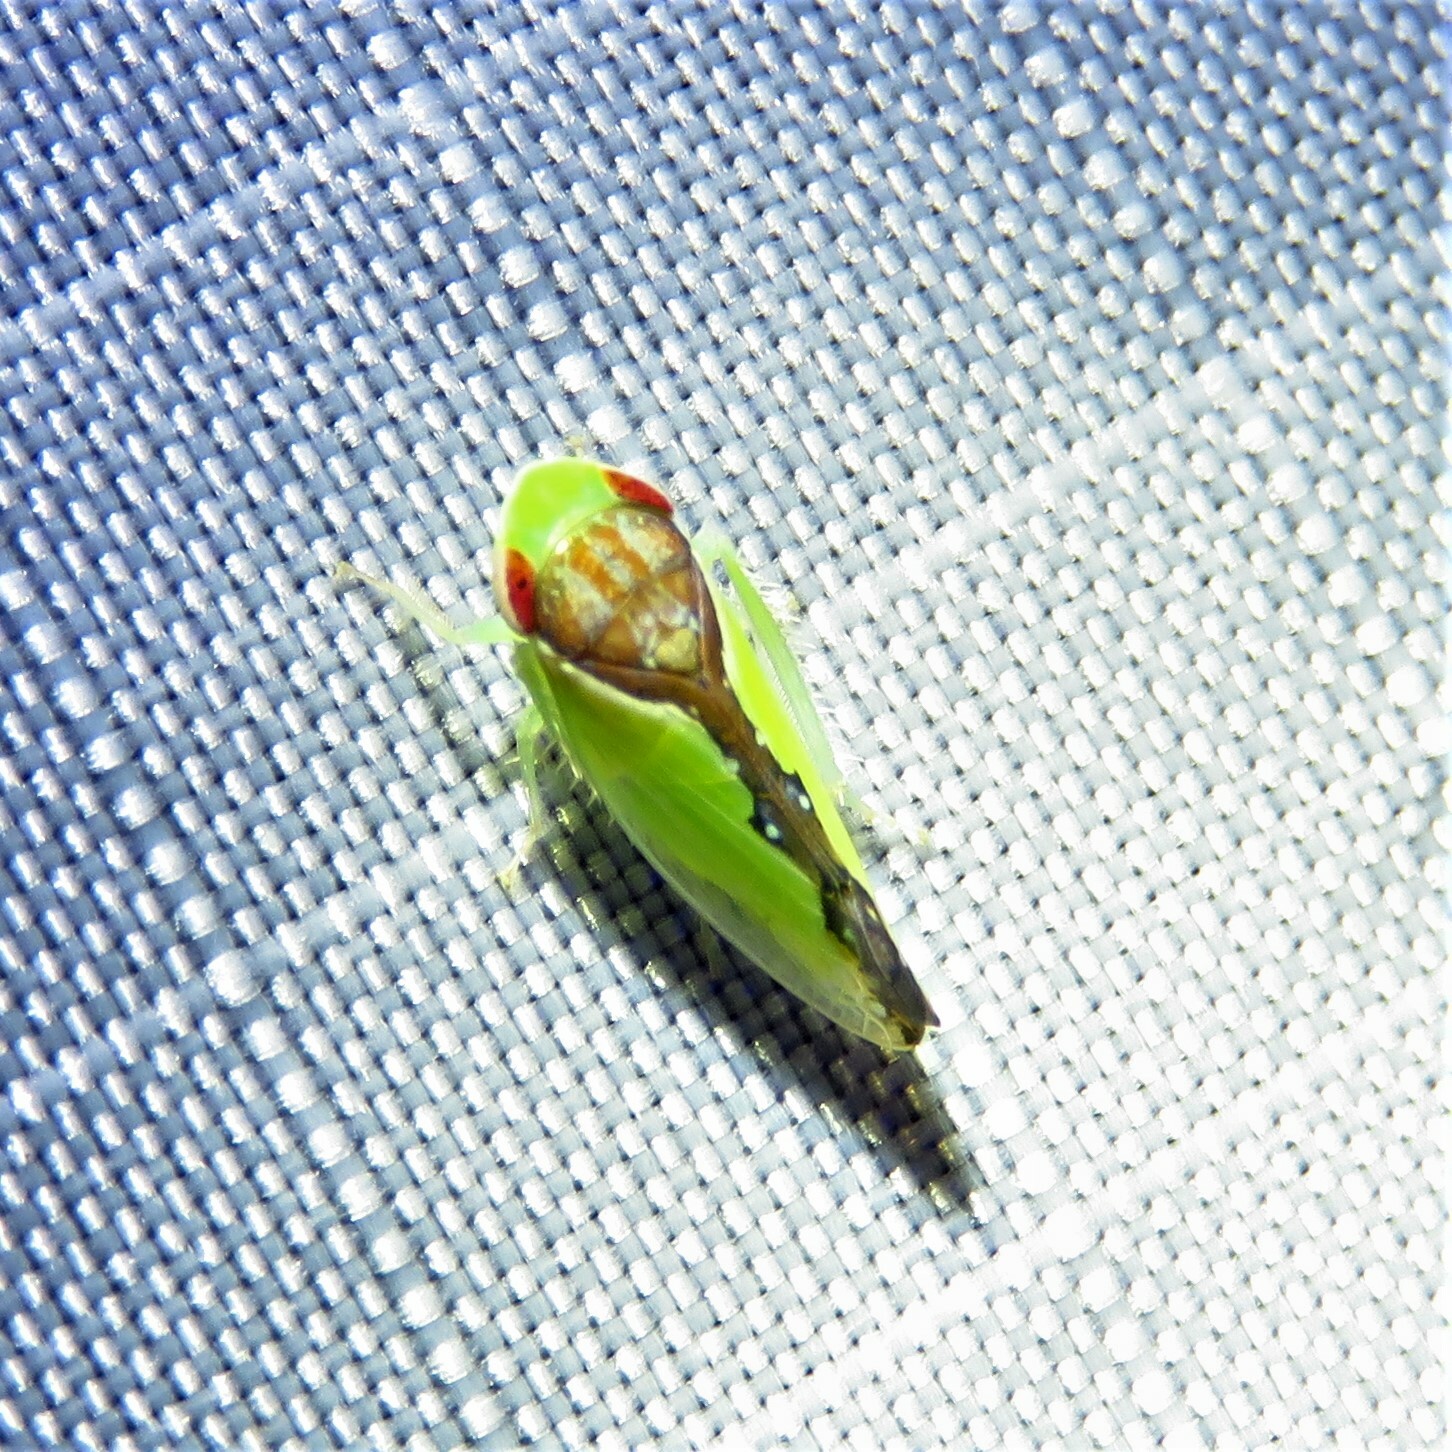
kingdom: Animalia
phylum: Arthropoda
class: Insecta
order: Hemiptera
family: Cicadellidae
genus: Omansobara ing
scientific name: Omansobara ing Omansobara palliolata
